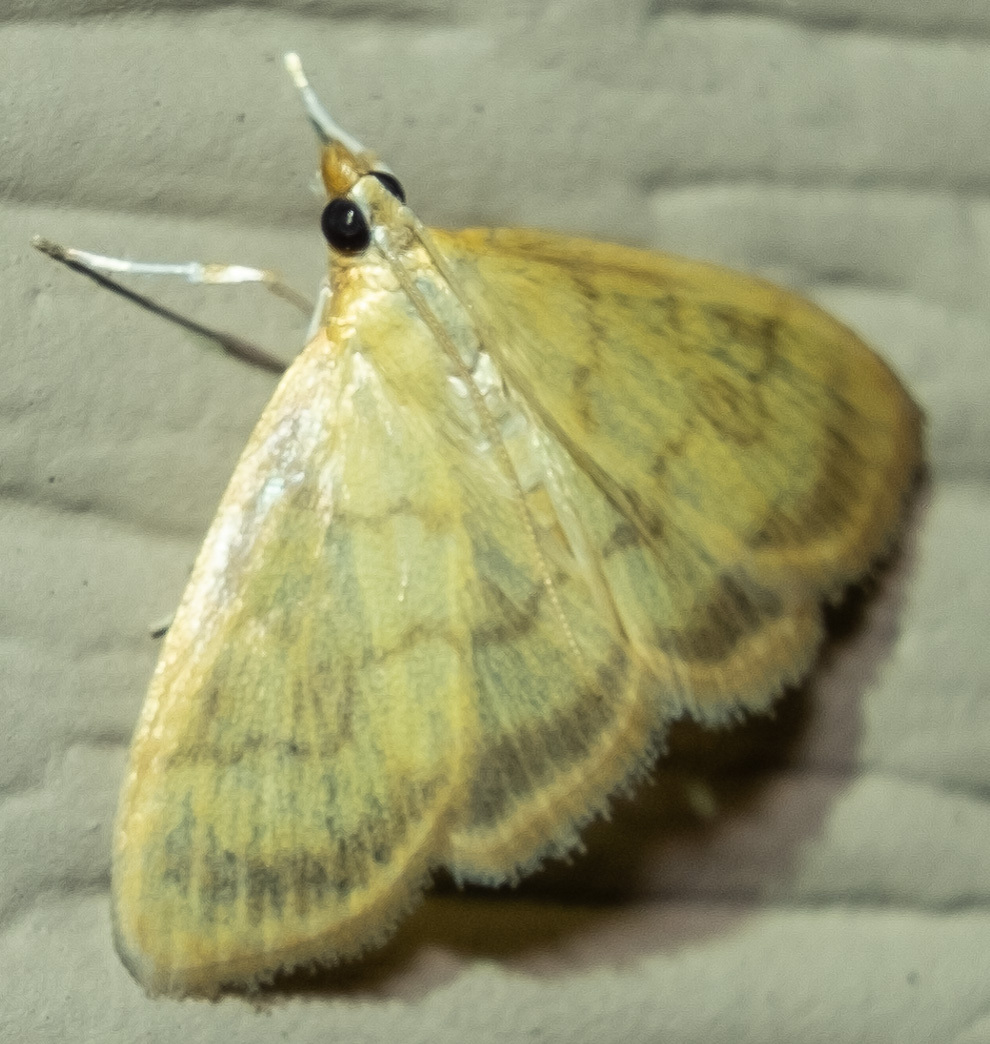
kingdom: Animalia
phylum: Arthropoda
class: Insecta
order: Lepidoptera
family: Crambidae
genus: Crocidophora
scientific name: Crocidophora tuberculalis
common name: Pale-winged crocidiphora moth
